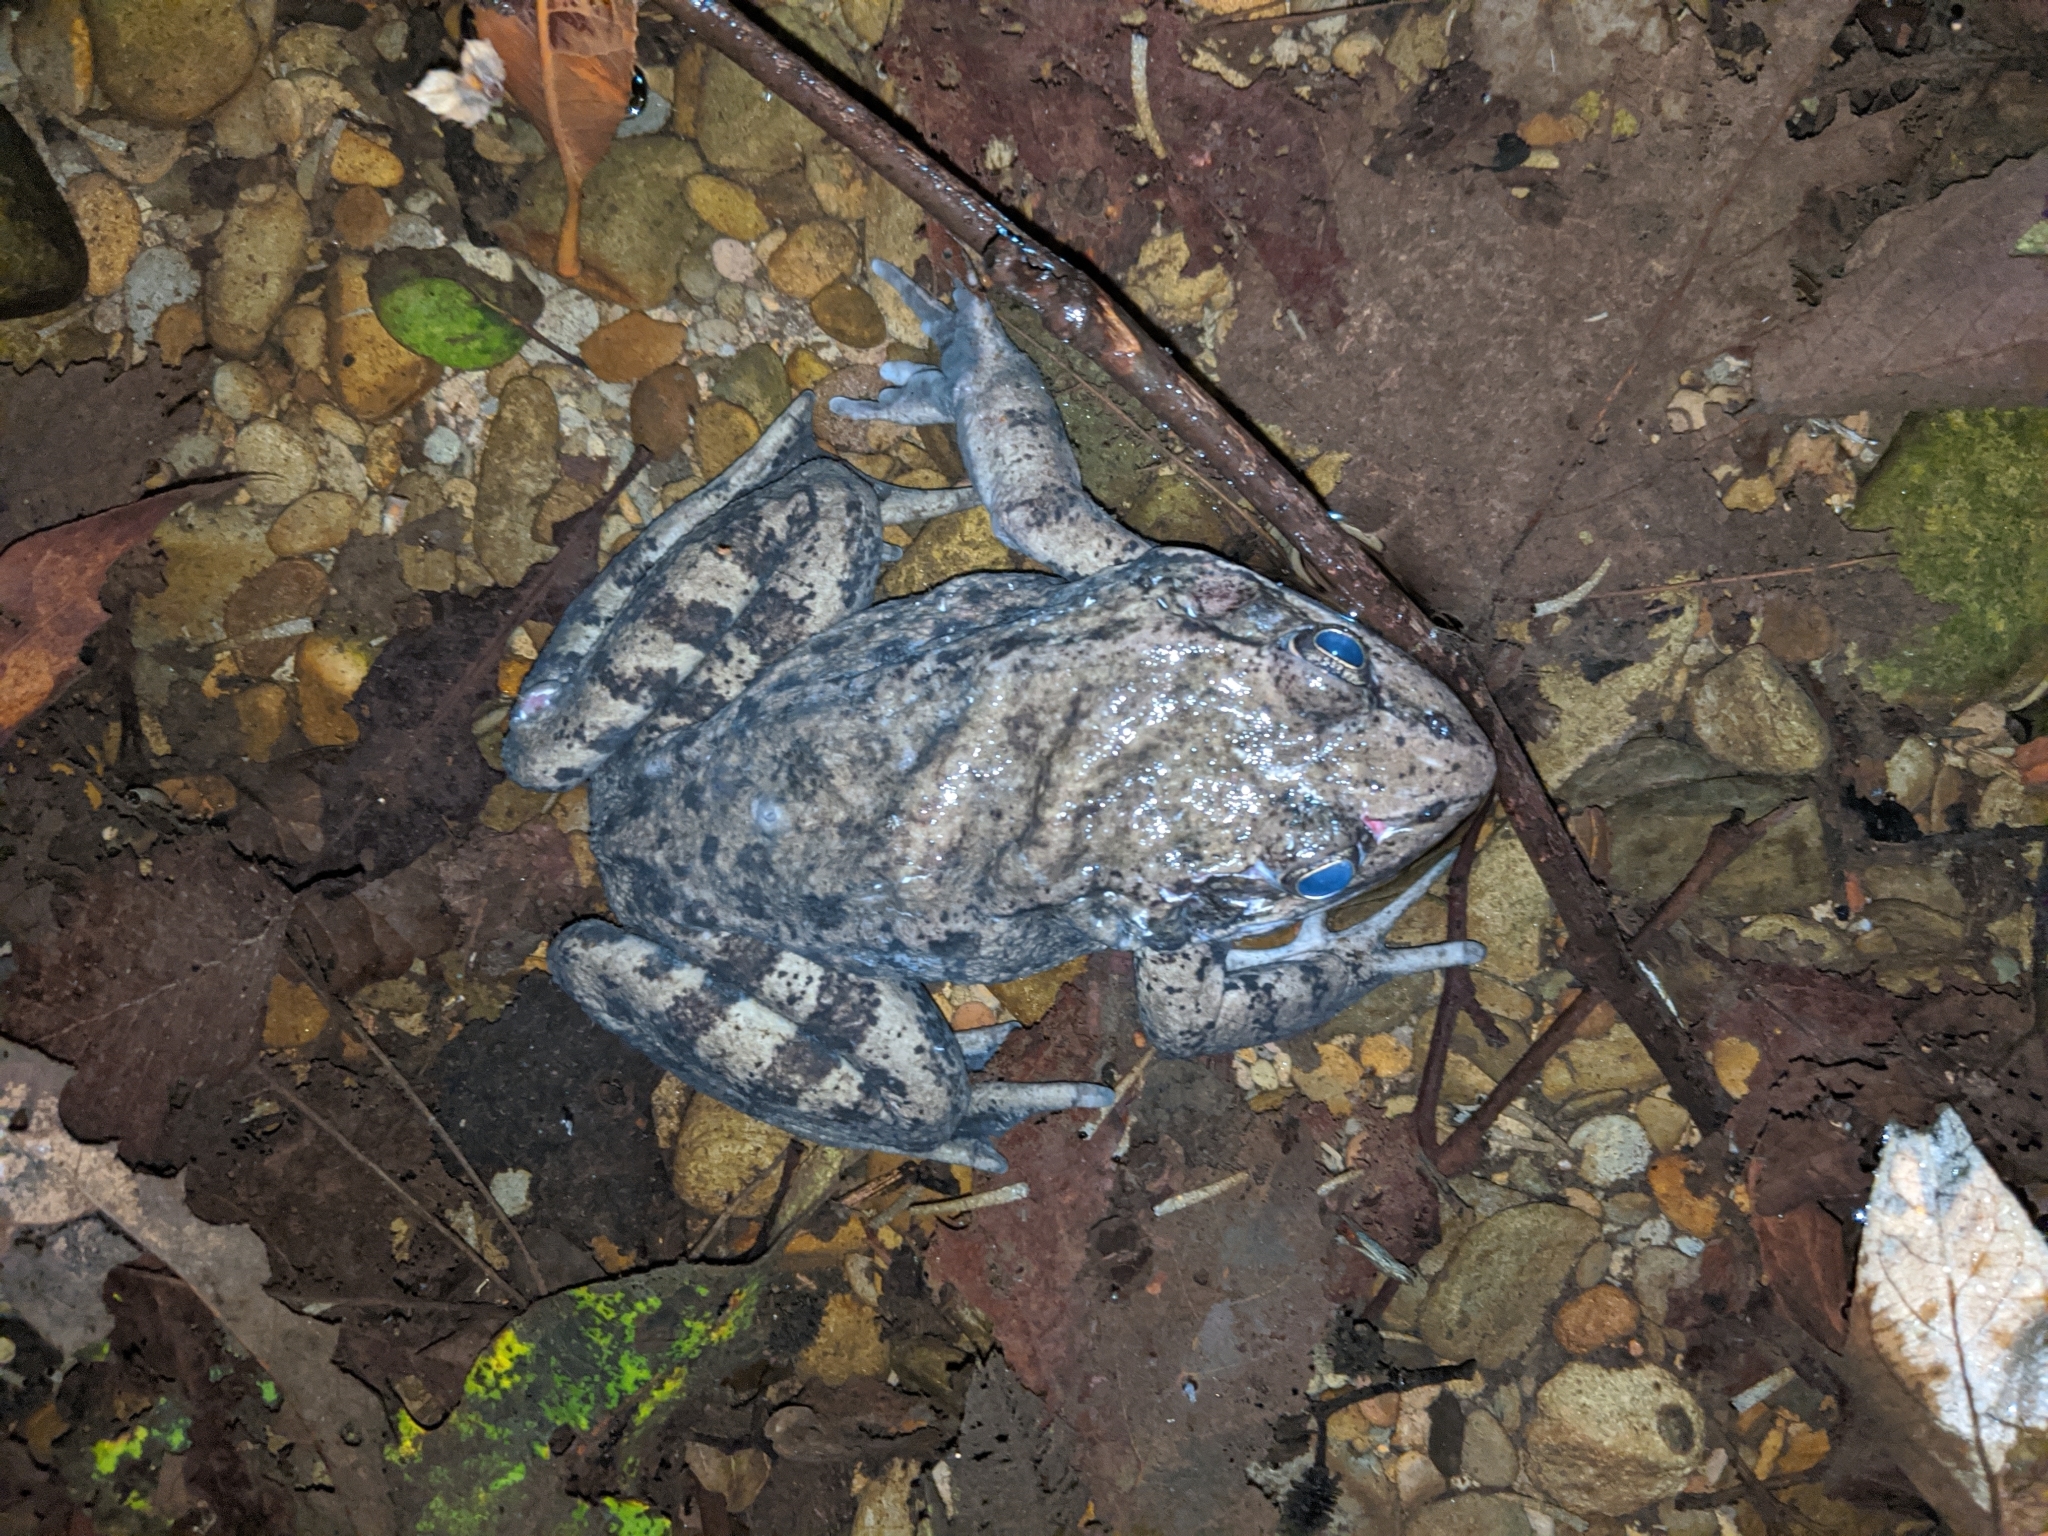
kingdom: Animalia
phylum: Chordata
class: Amphibia
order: Anura
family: Ranidae
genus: Rana
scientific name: Rana draytonii
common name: California red-legged frog
